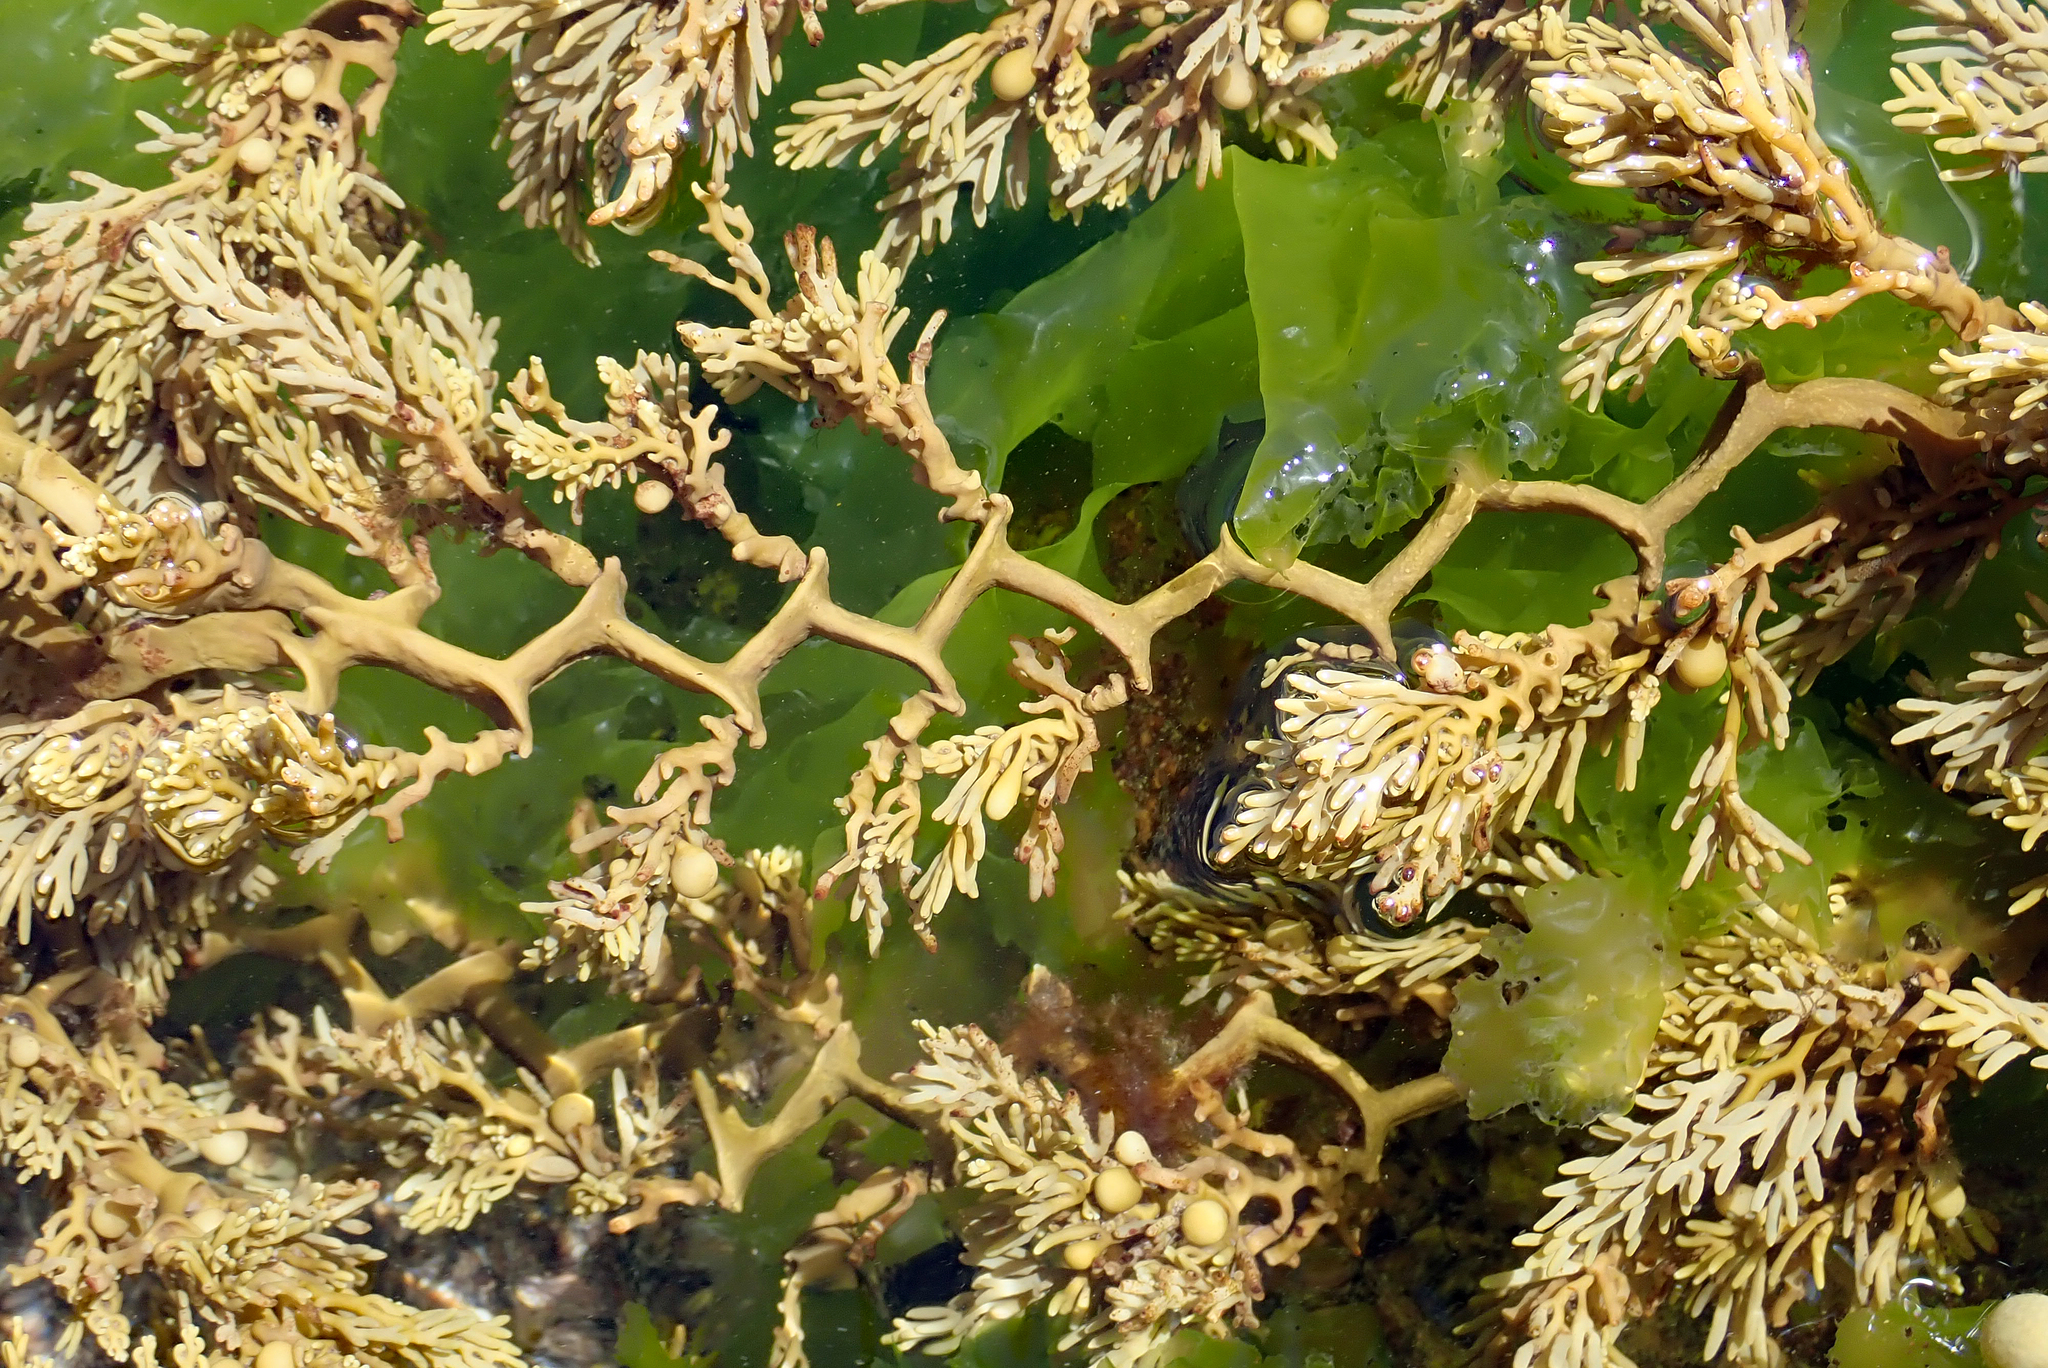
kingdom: Chromista
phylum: Ochrophyta
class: Phaeophyceae
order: Fucales
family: Sargassaceae
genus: Cystophora
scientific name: Cystophora scalaris
